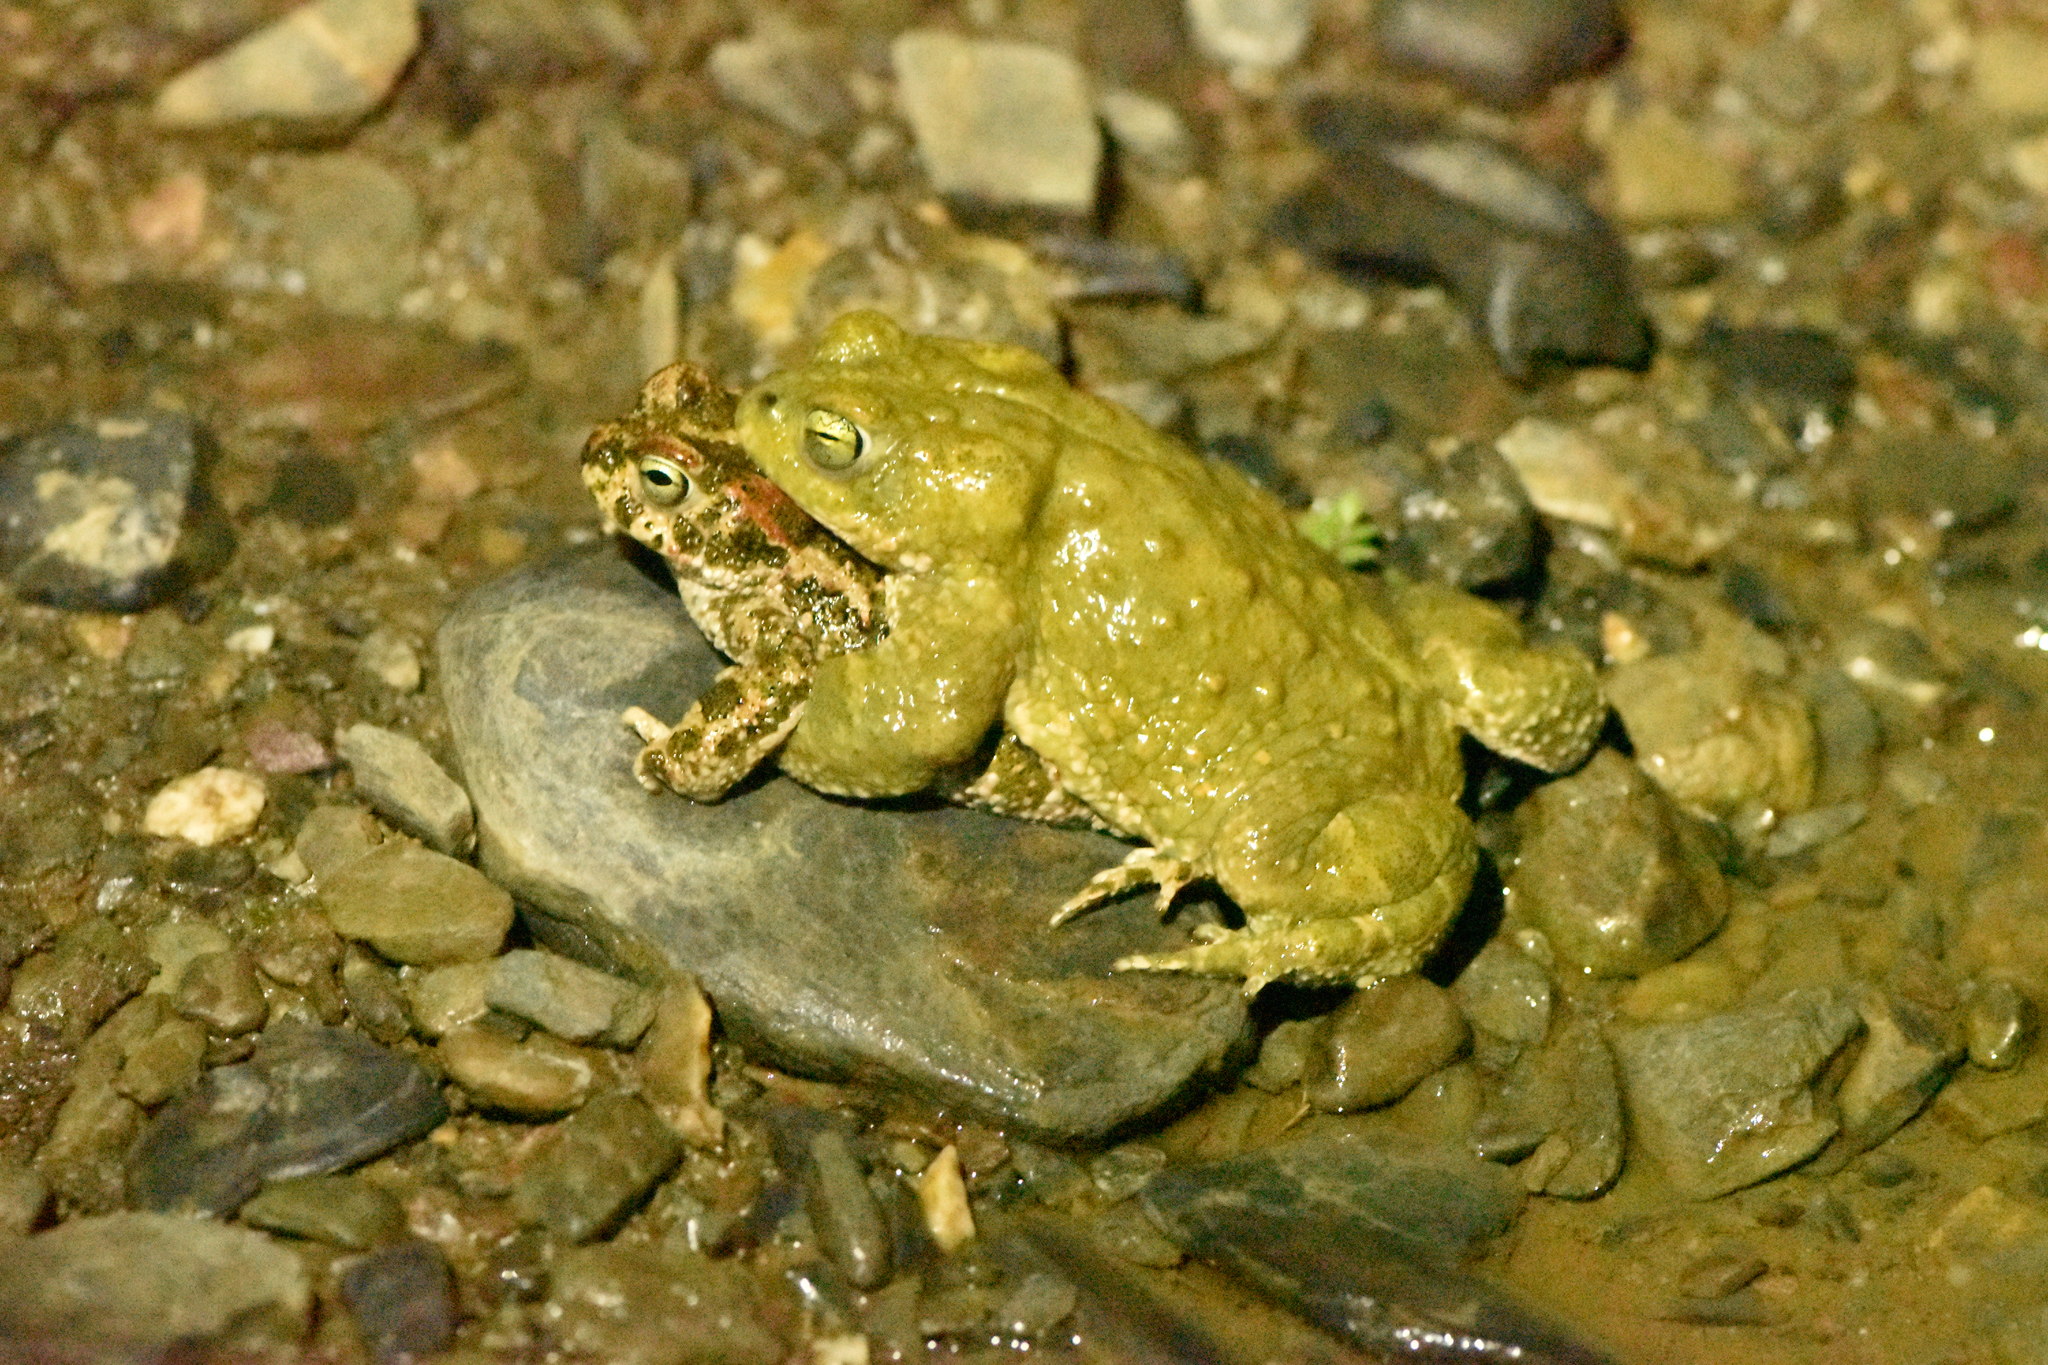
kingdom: Animalia
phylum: Chordata
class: Amphibia
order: Anura
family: Bufonidae
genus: Epidalea
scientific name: Epidalea calamita
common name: Natterjack toad
